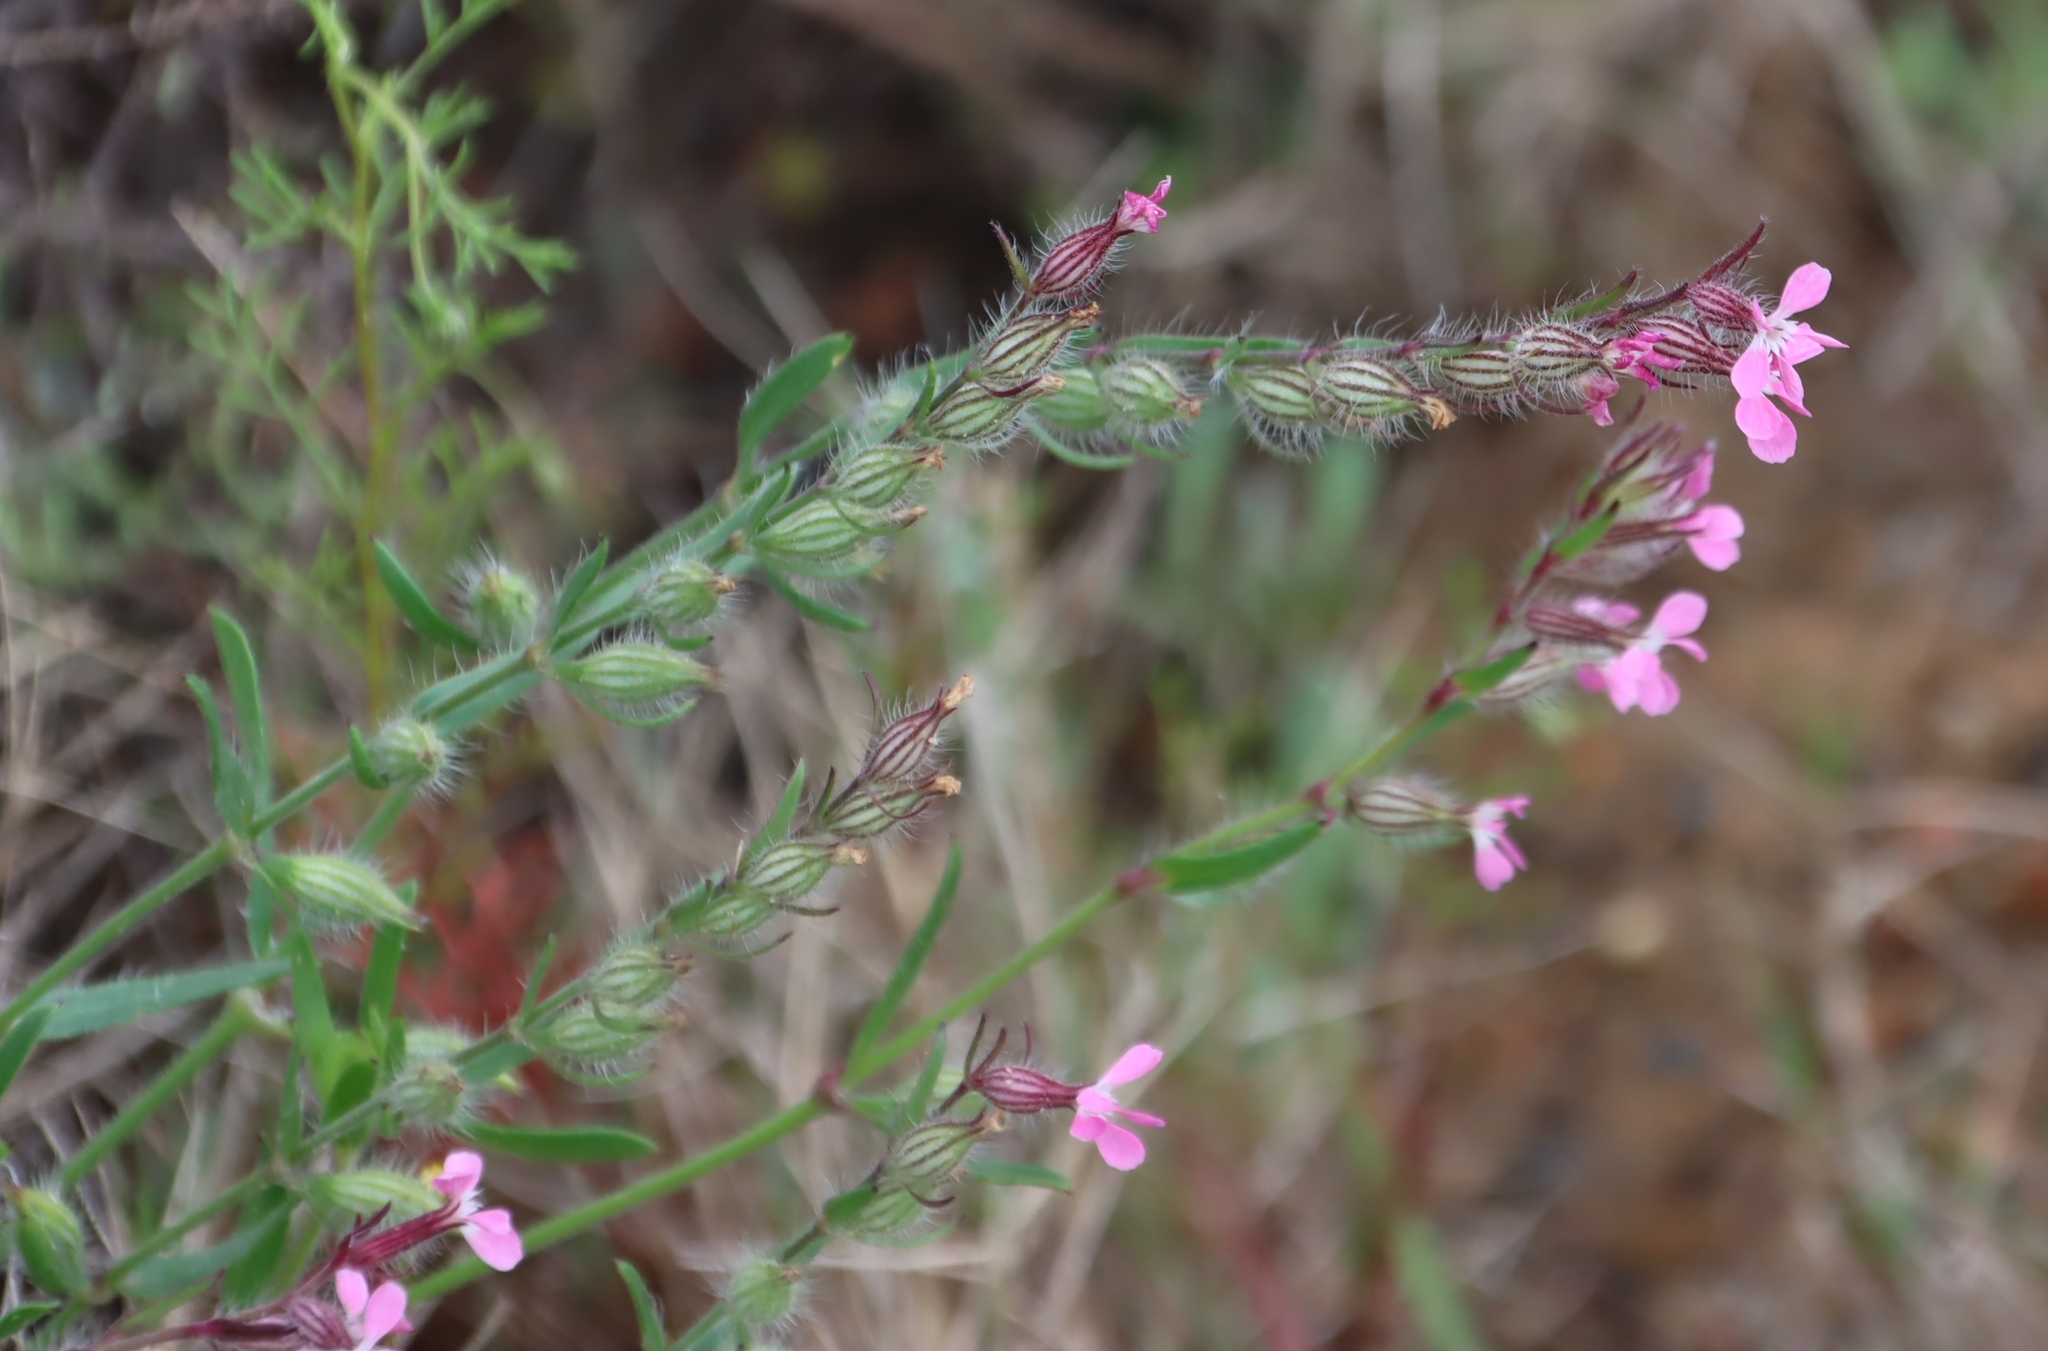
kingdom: Plantae
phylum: Tracheophyta
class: Magnoliopsida
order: Caryophyllales
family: Caryophyllaceae
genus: Silene
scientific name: Silene gallica
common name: Small-flowered catchfly
